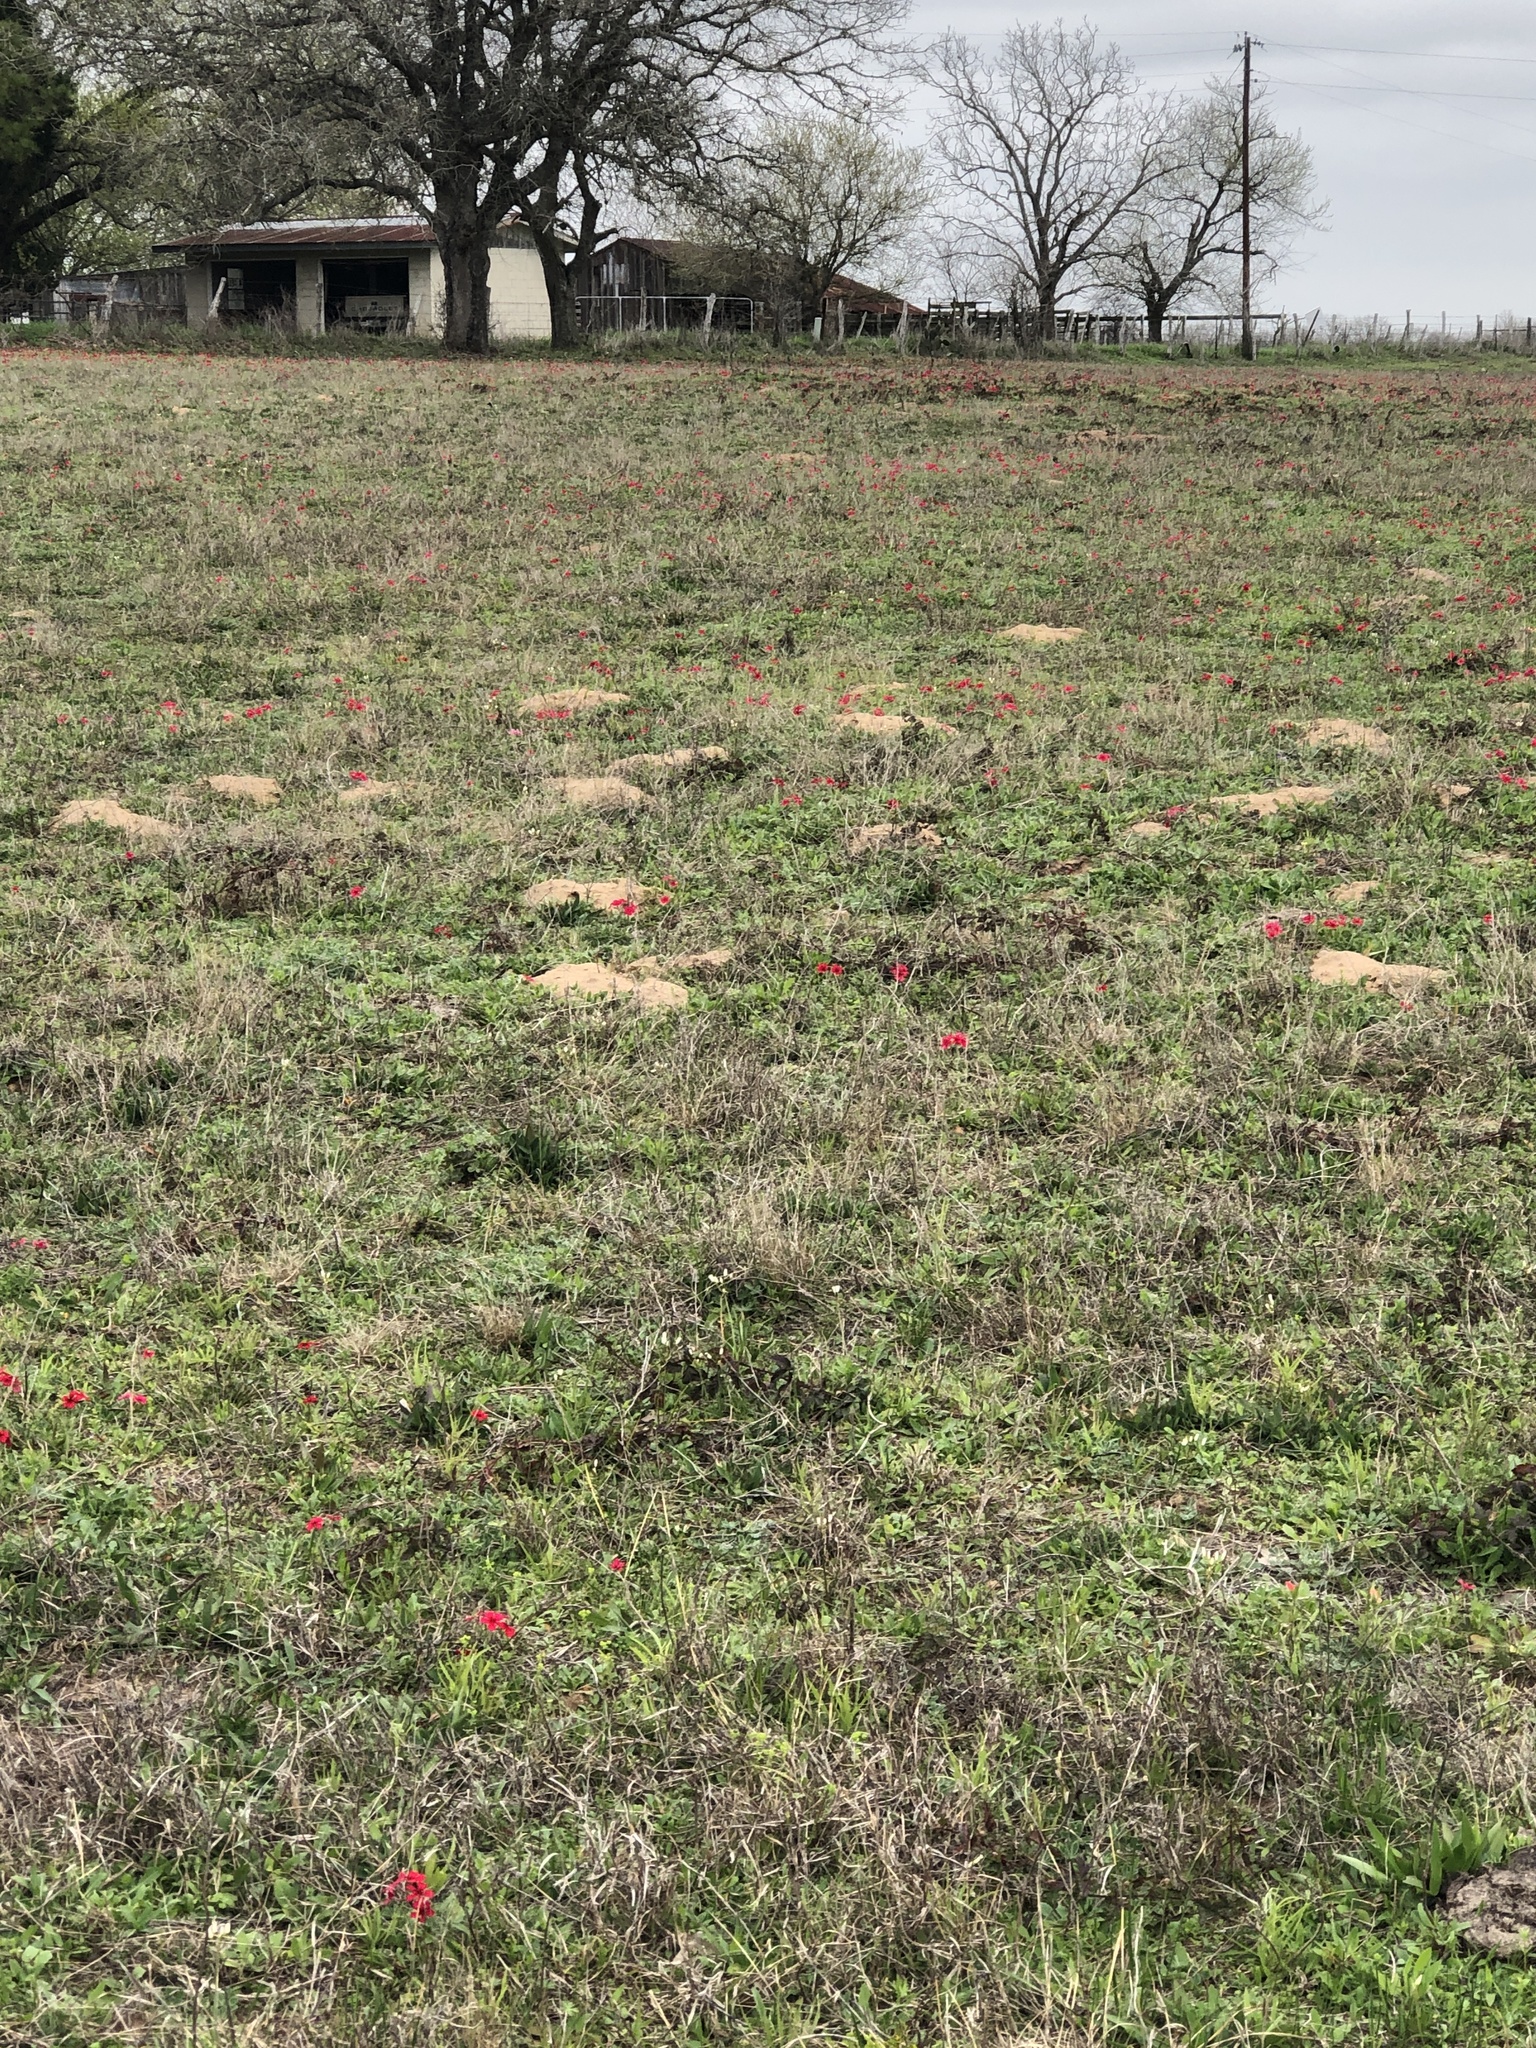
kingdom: Animalia
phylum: Chordata
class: Mammalia
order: Rodentia
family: Geomyidae
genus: Geomys
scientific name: Geomys attwateri
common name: Attwater's pocket gopher
